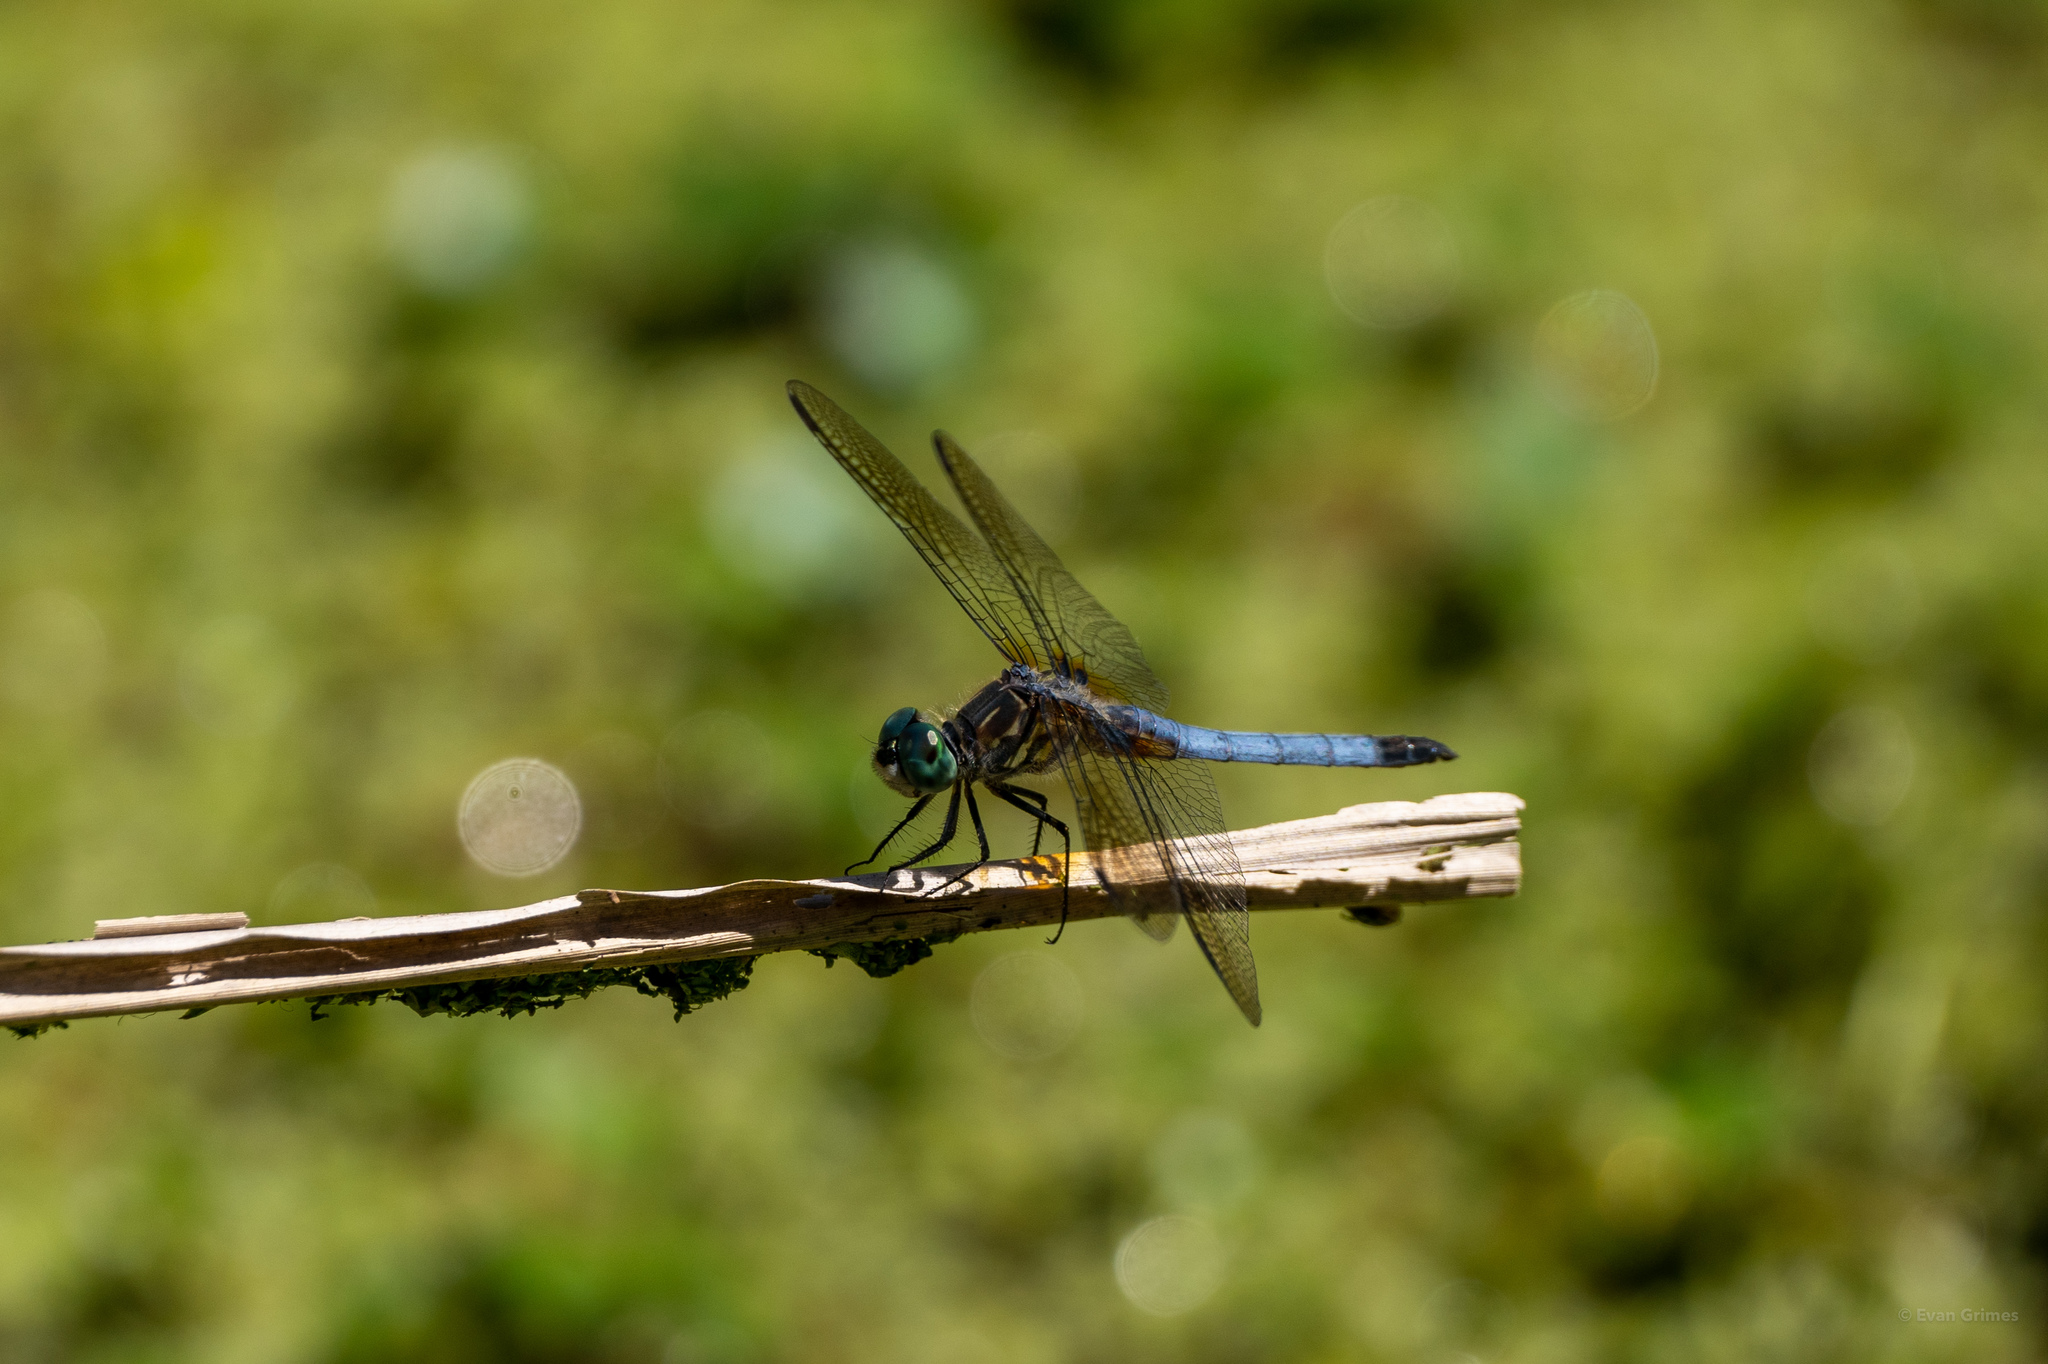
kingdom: Animalia
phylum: Arthropoda
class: Insecta
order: Odonata
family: Libellulidae
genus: Pachydiplax
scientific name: Pachydiplax longipennis
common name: Blue dasher
